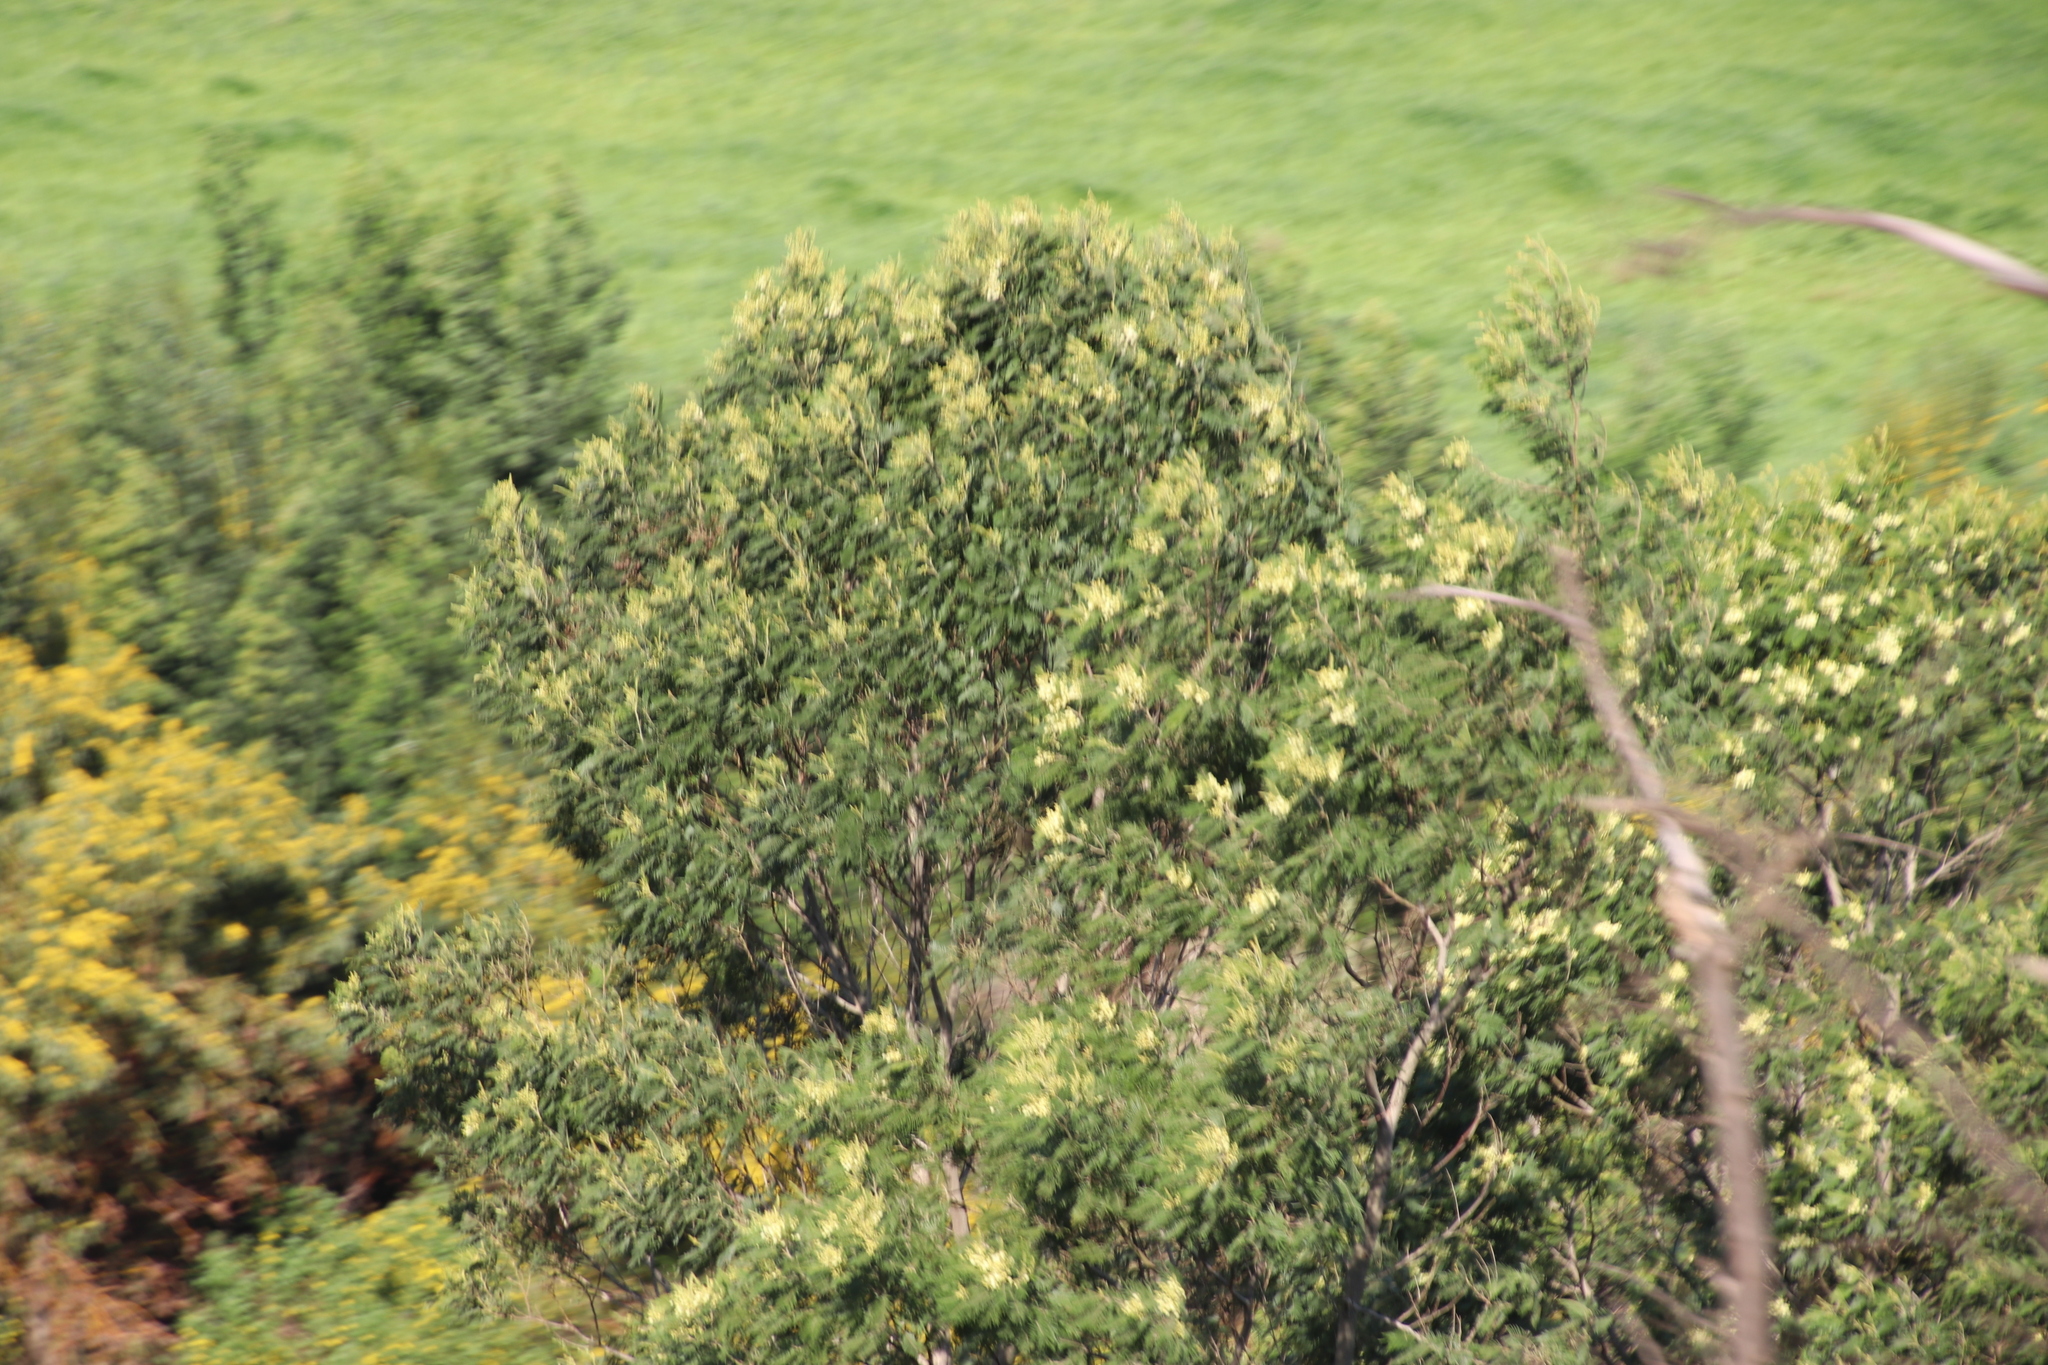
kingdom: Plantae
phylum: Tracheophyta
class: Magnoliopsida
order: Fabales
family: Fabaceae
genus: Acacia
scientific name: Acacia mearnsii
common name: Black wattle
